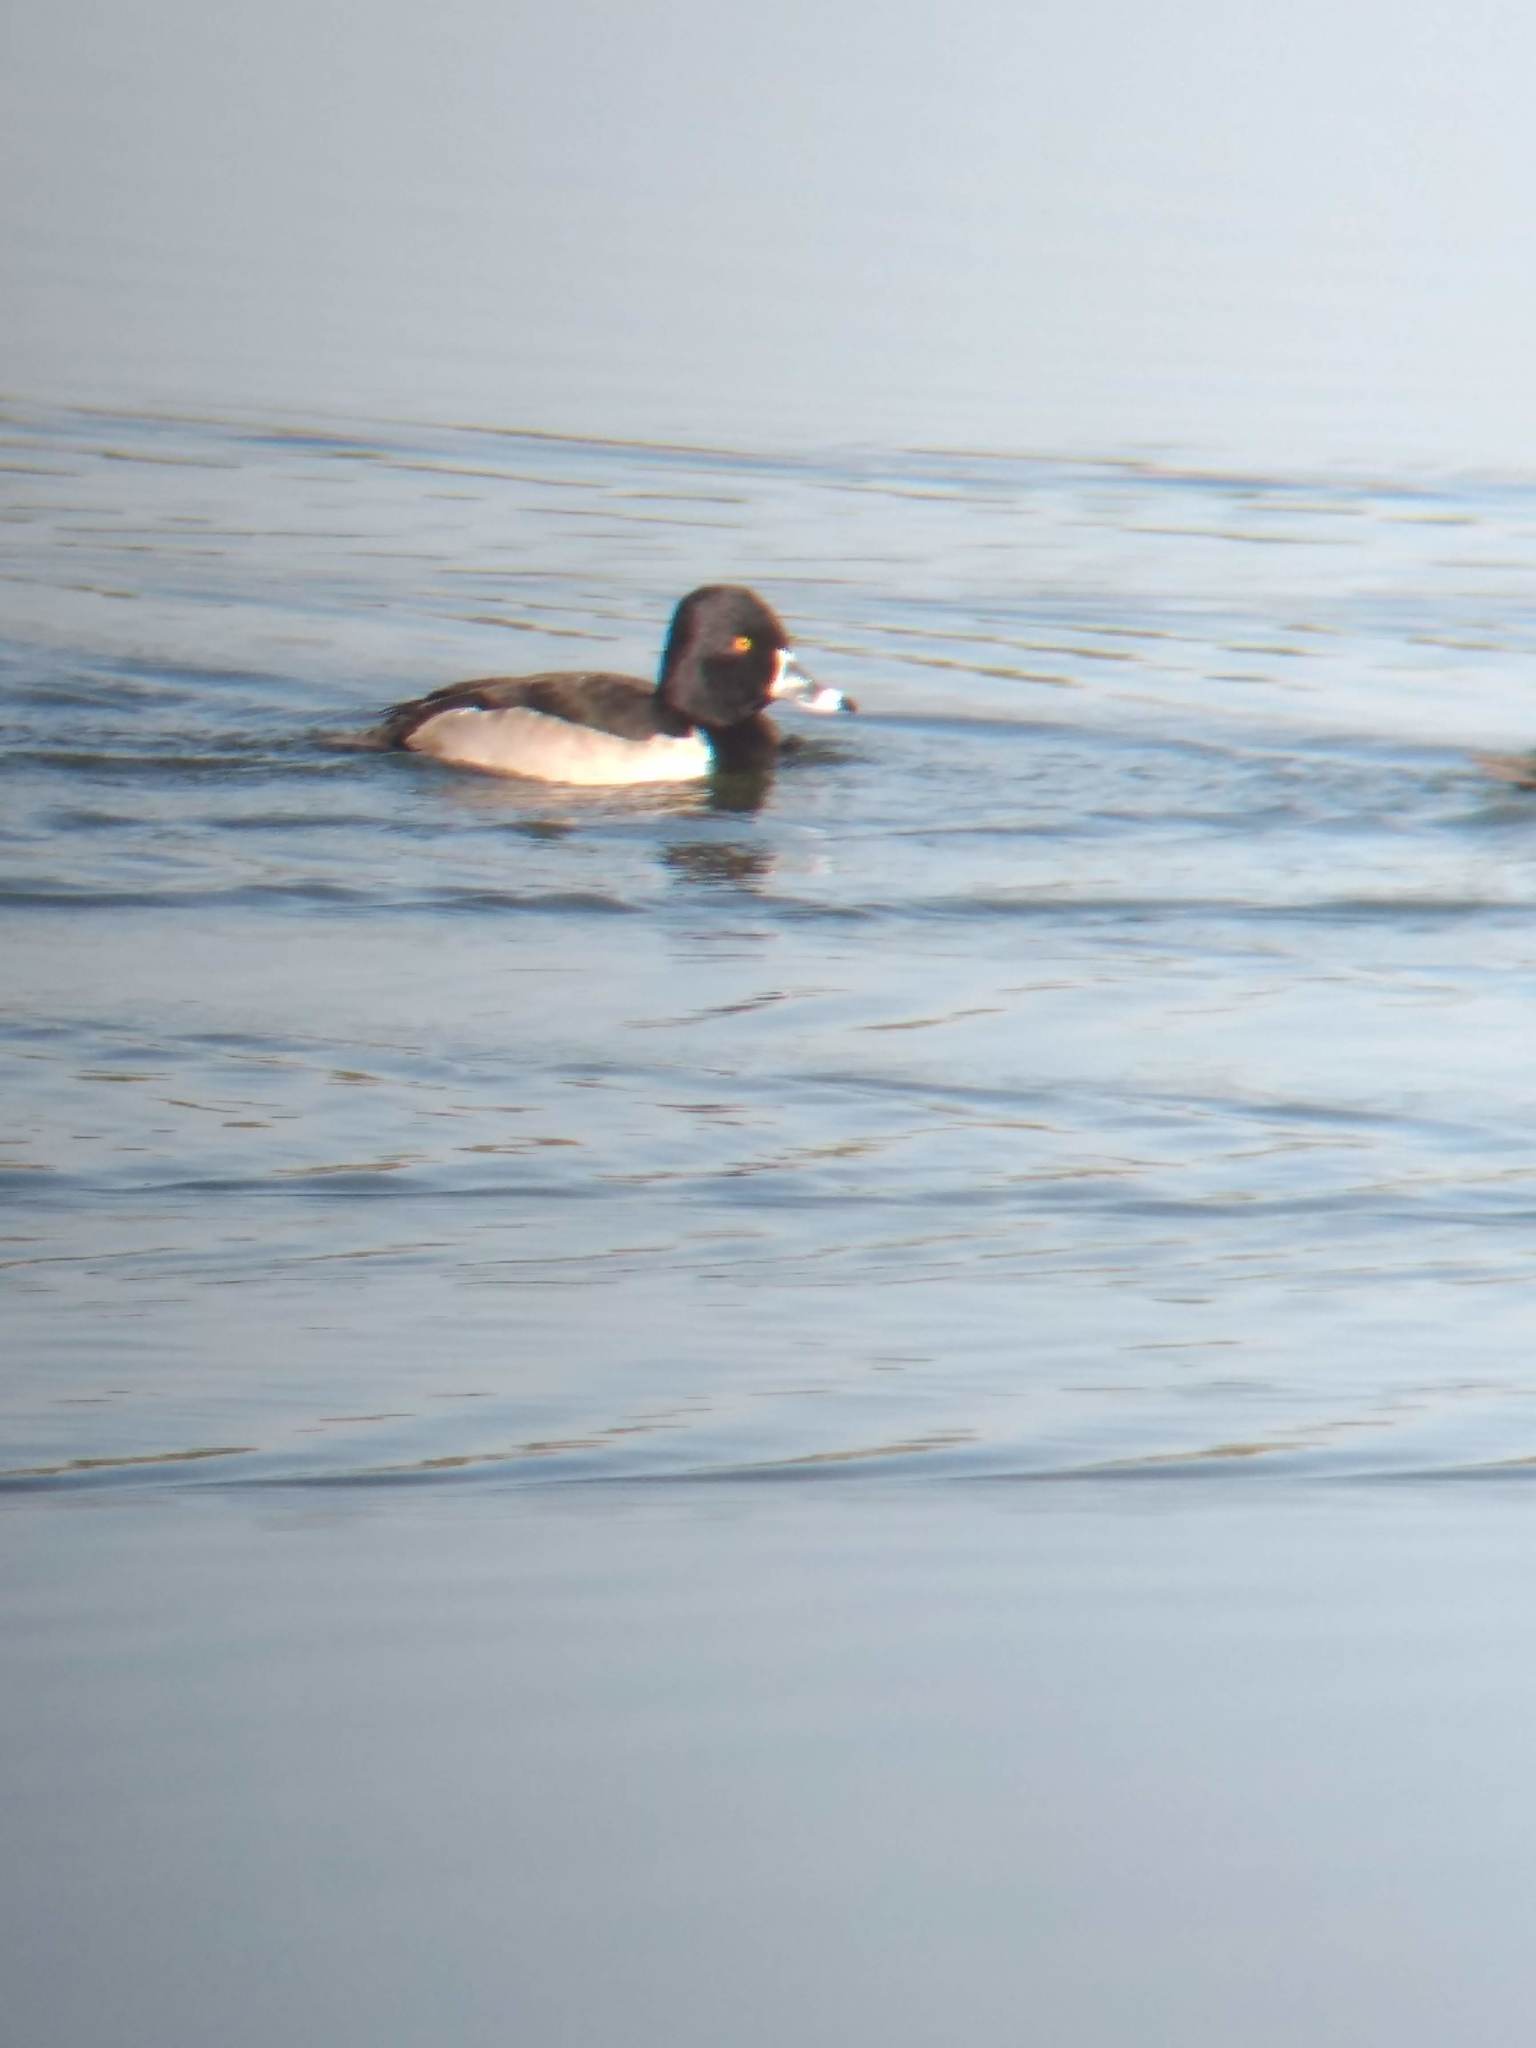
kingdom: Animalia
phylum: Chordata
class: Aves
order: Anseriformes
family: Anatidae
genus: Aythya
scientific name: Aythya collaris
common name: Ring-necked duck
